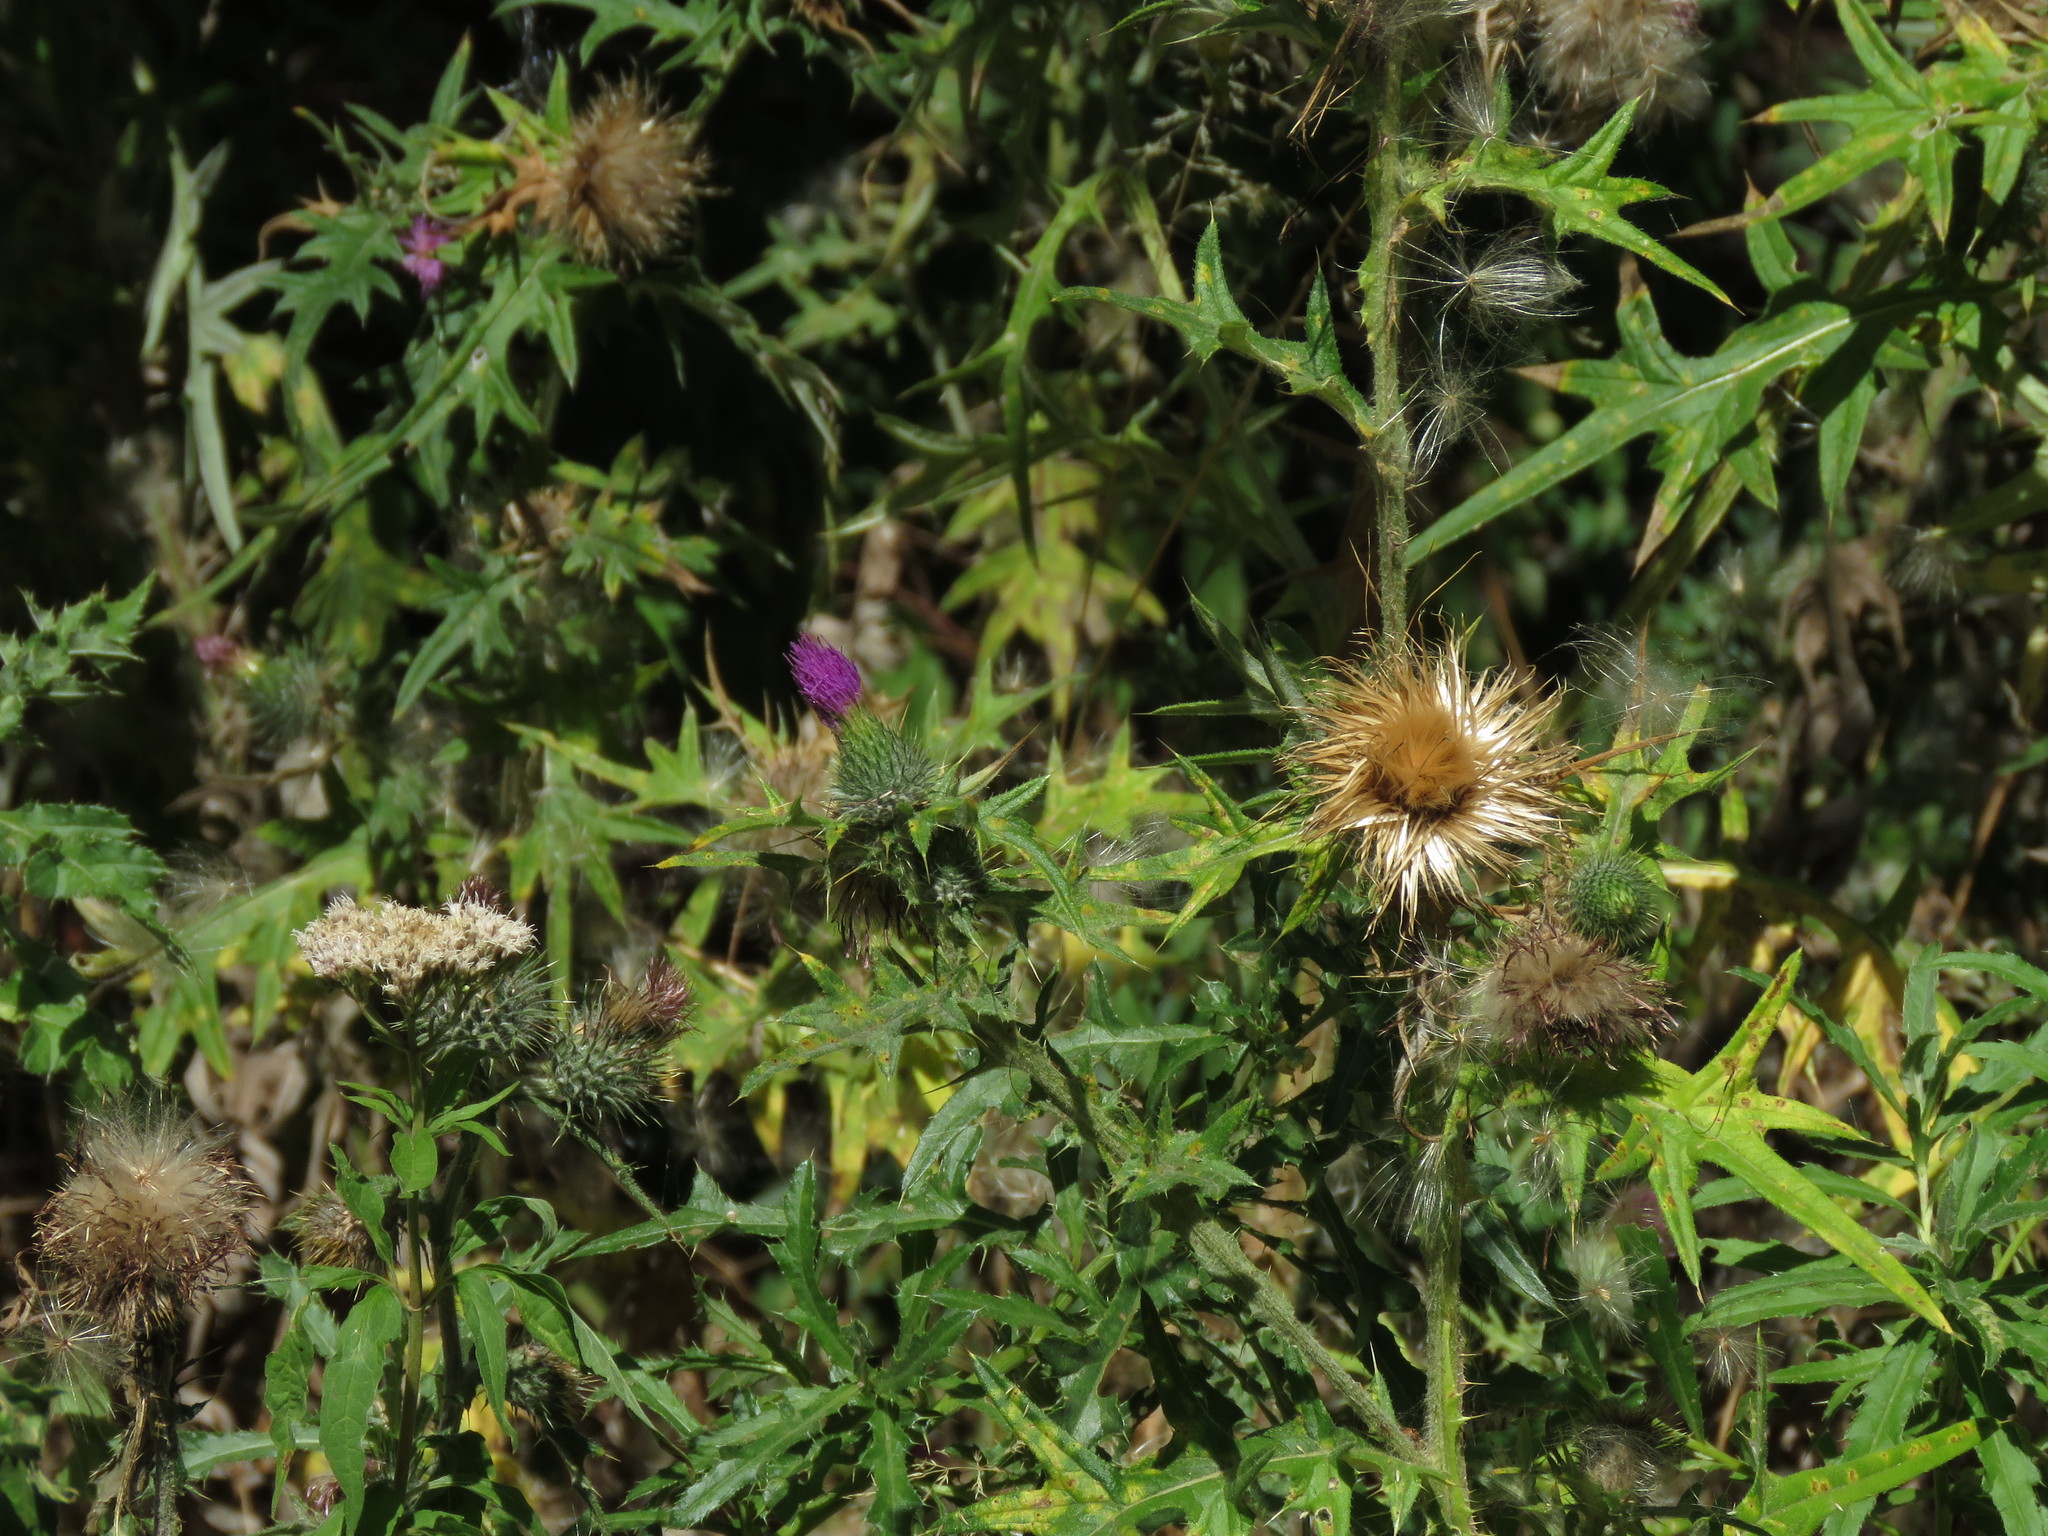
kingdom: Plantae
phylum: Tracheophyta
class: Magnoliopsida
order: Asterales
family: Asteraceae
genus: Cirsium
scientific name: Cirsium vulgare
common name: Bull thistle
